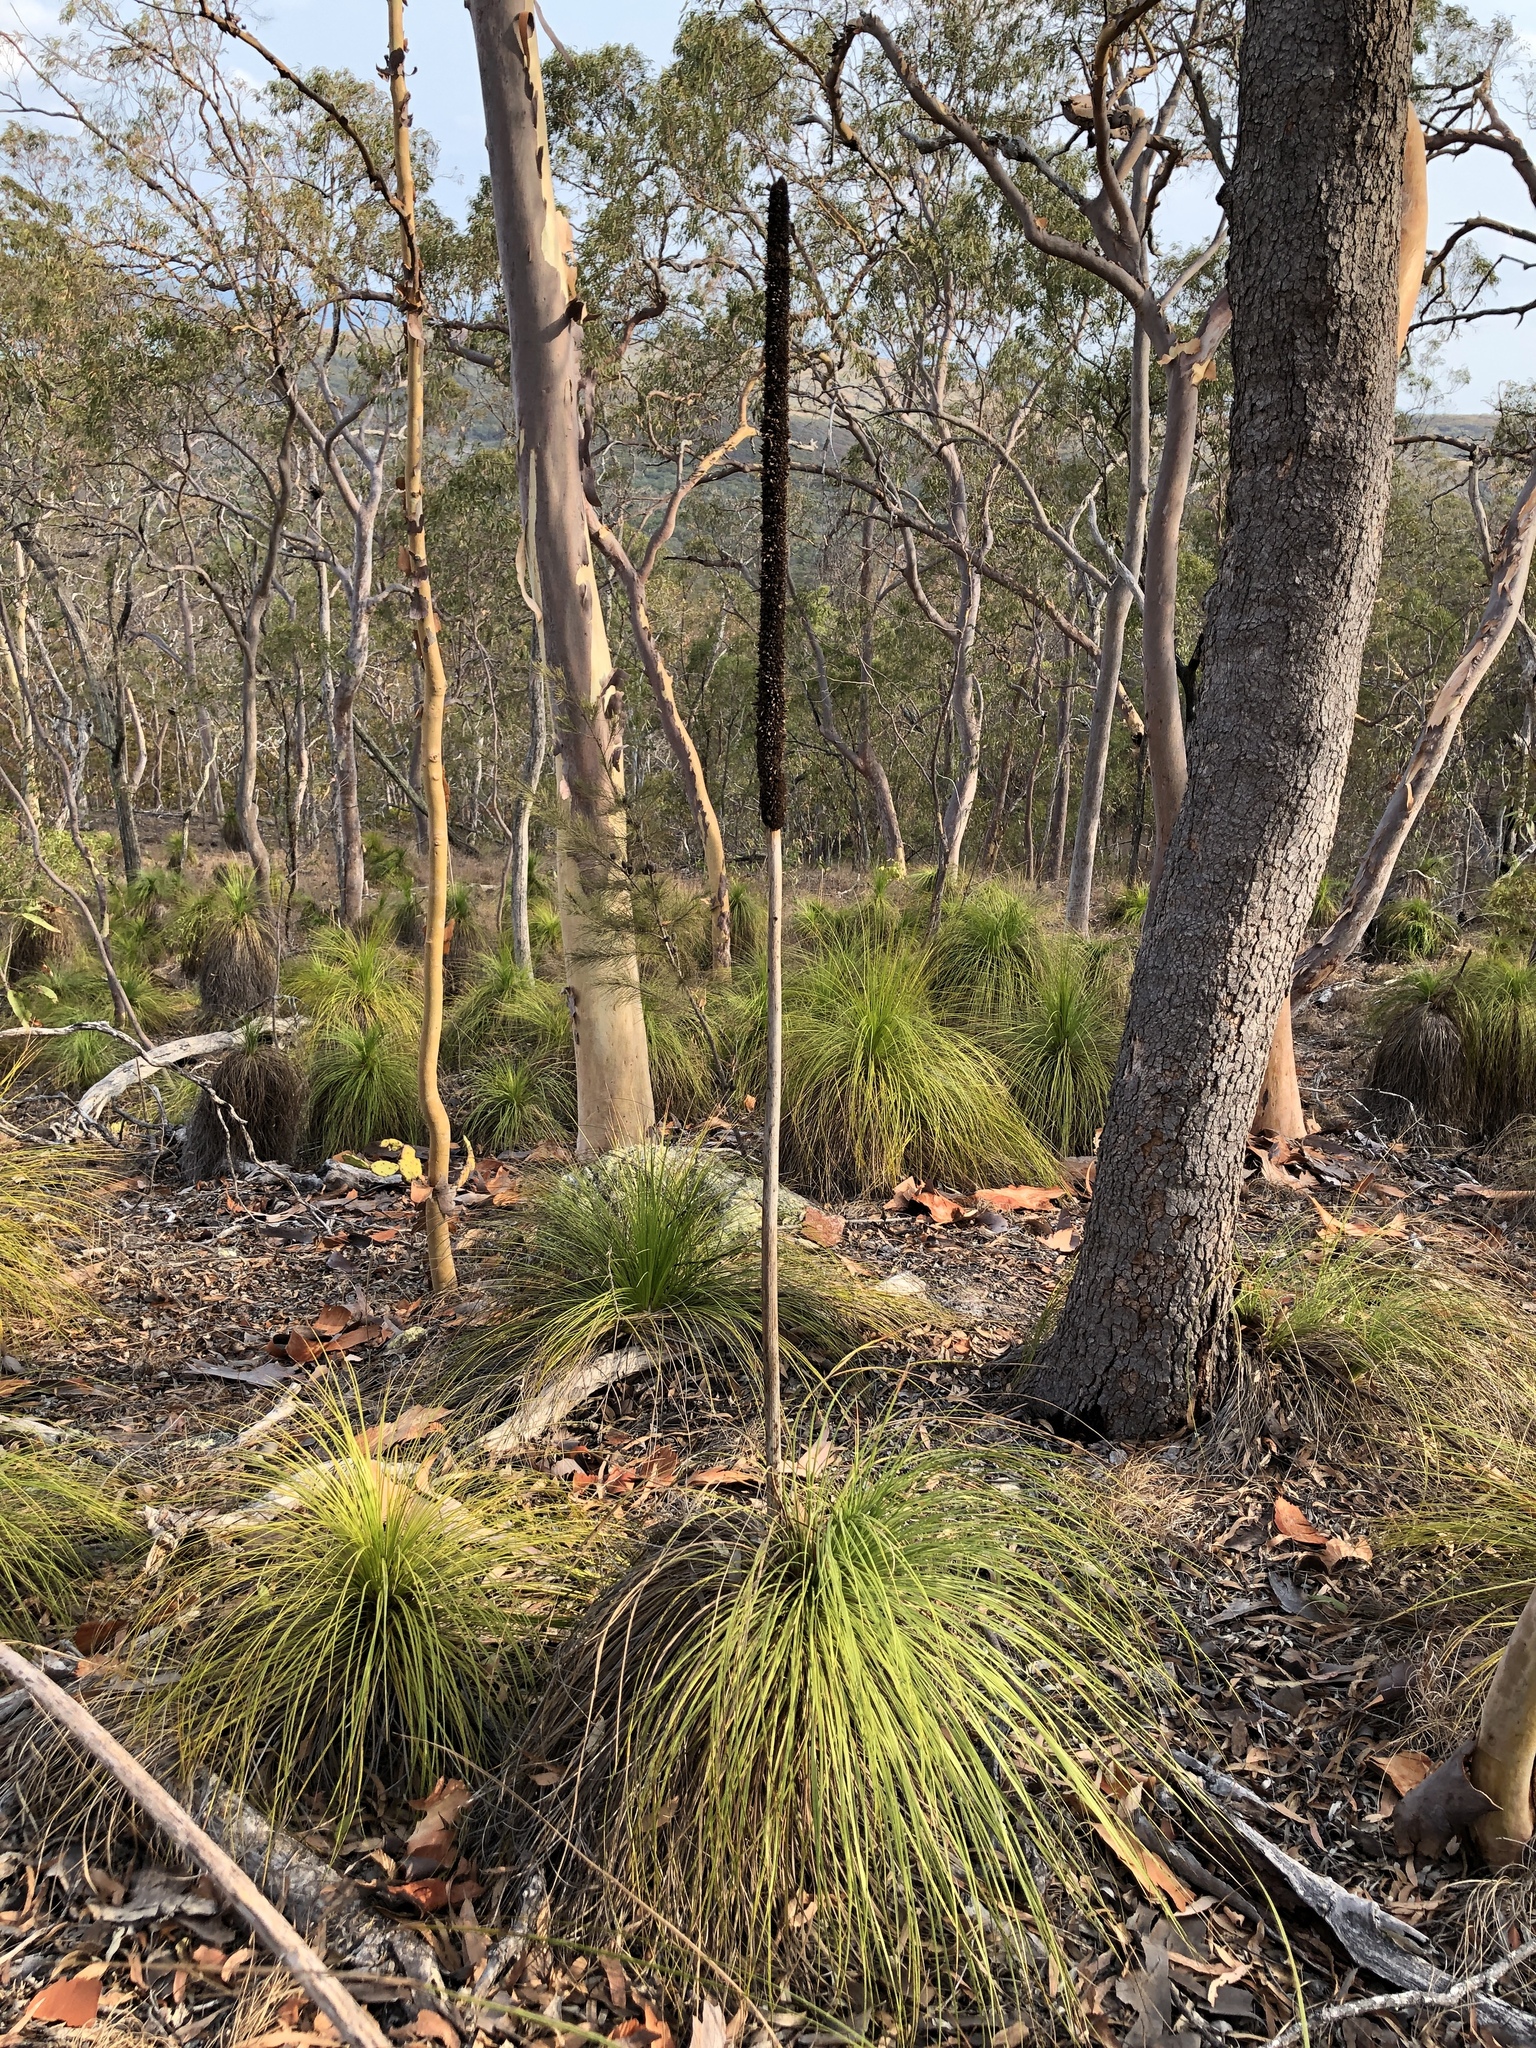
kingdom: Plantae
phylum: Tracheophyta
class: Liliopsida
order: Asparagales
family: Asphodelaceae
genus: Xanthorrhoea
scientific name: Xanthorrhoea latifolia
